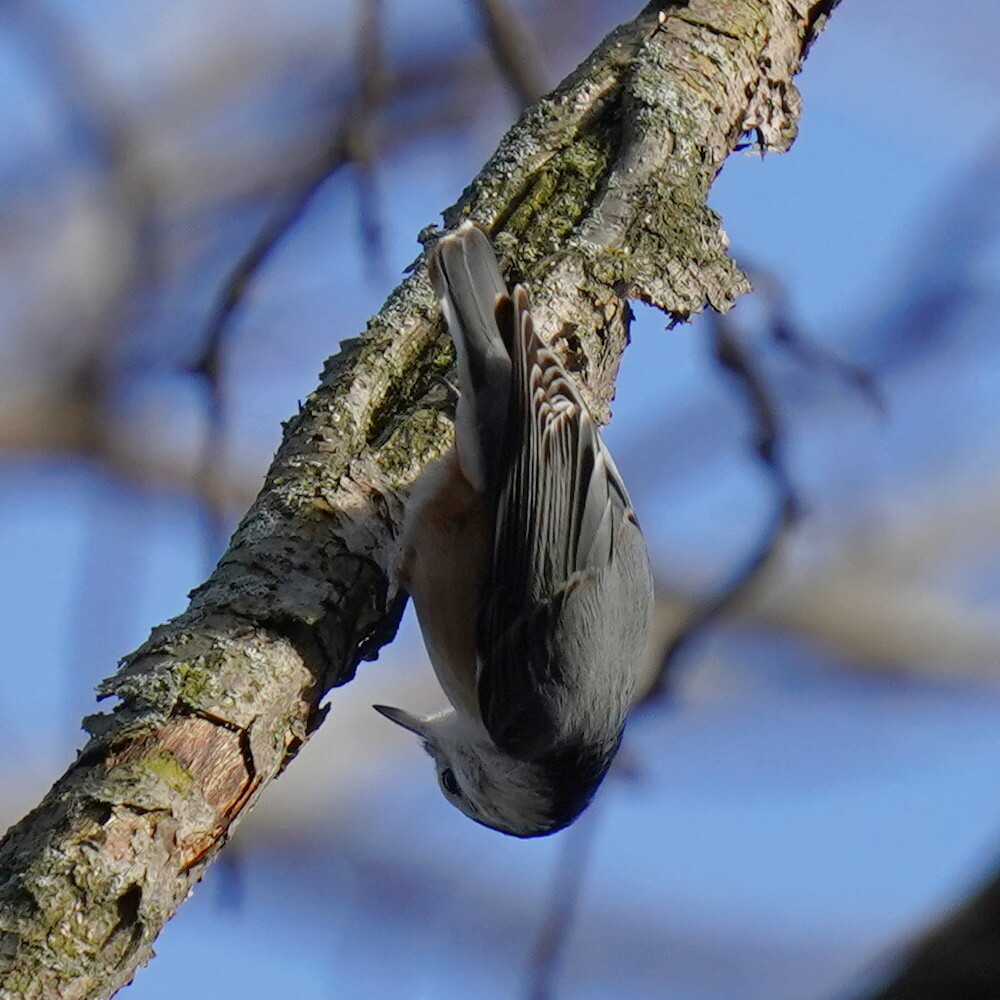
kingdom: Animalia
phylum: Chordata
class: Aves
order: Passeriformes
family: Sittidae
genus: Sitta
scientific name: Sitta carolinensis
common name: White-breasted nuthatch
